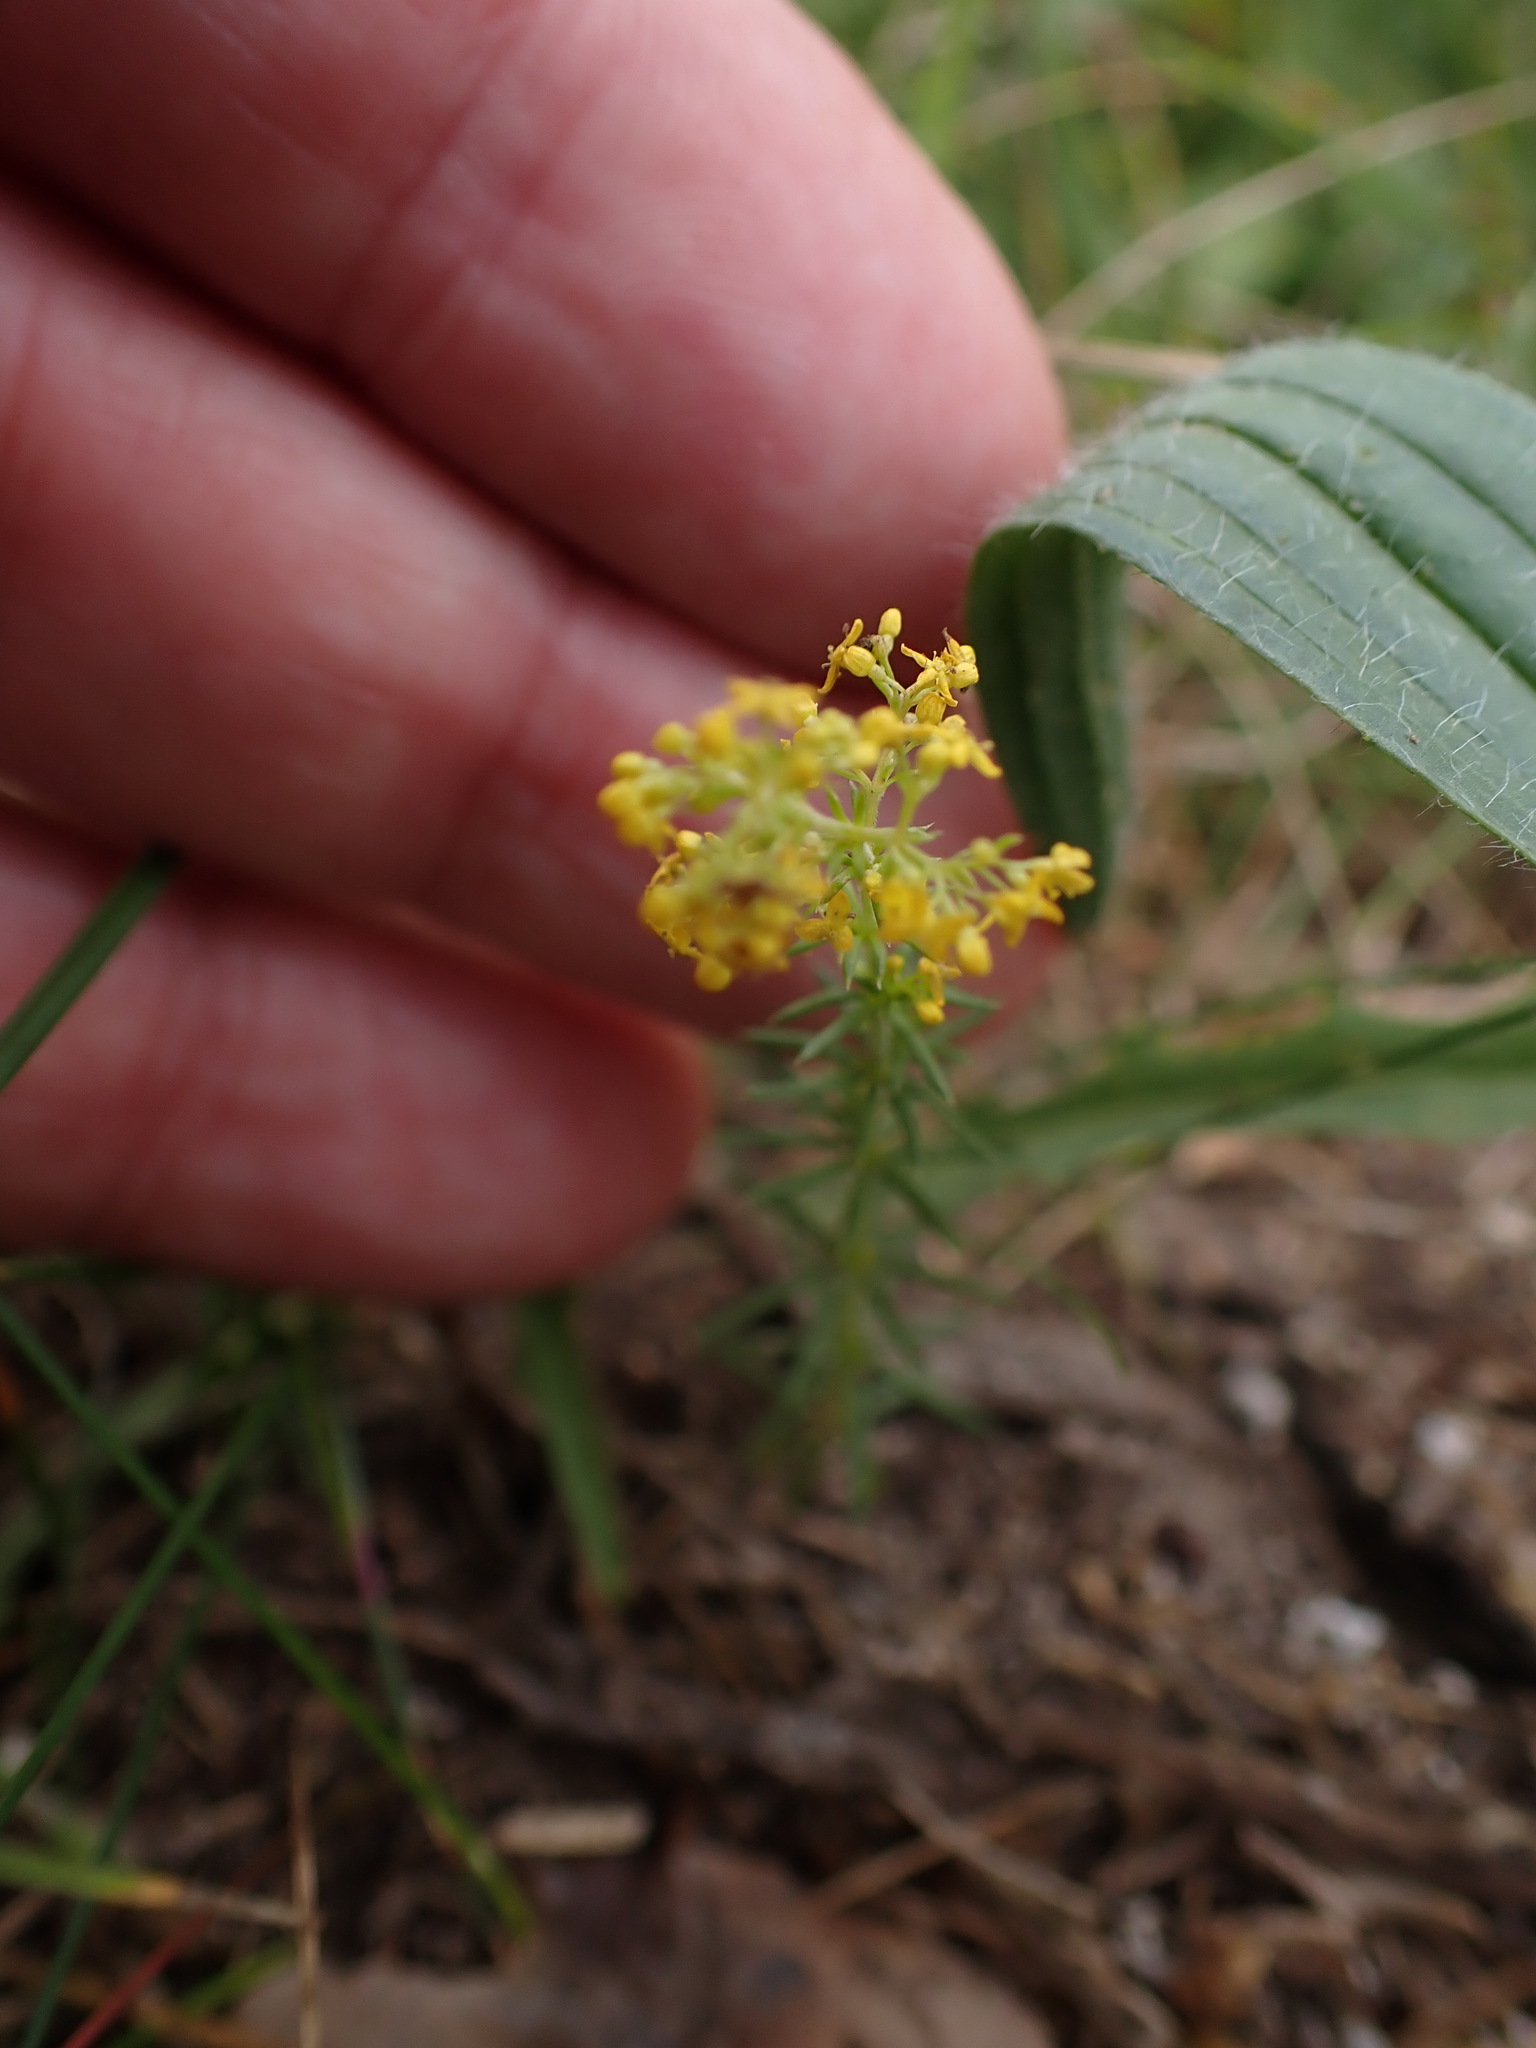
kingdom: Plantae
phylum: Tracheophyta
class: Magnoliopsida
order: Gentianales
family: Rubiaceae
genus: Galium
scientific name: Galium verum
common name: Lady's bedstraw
